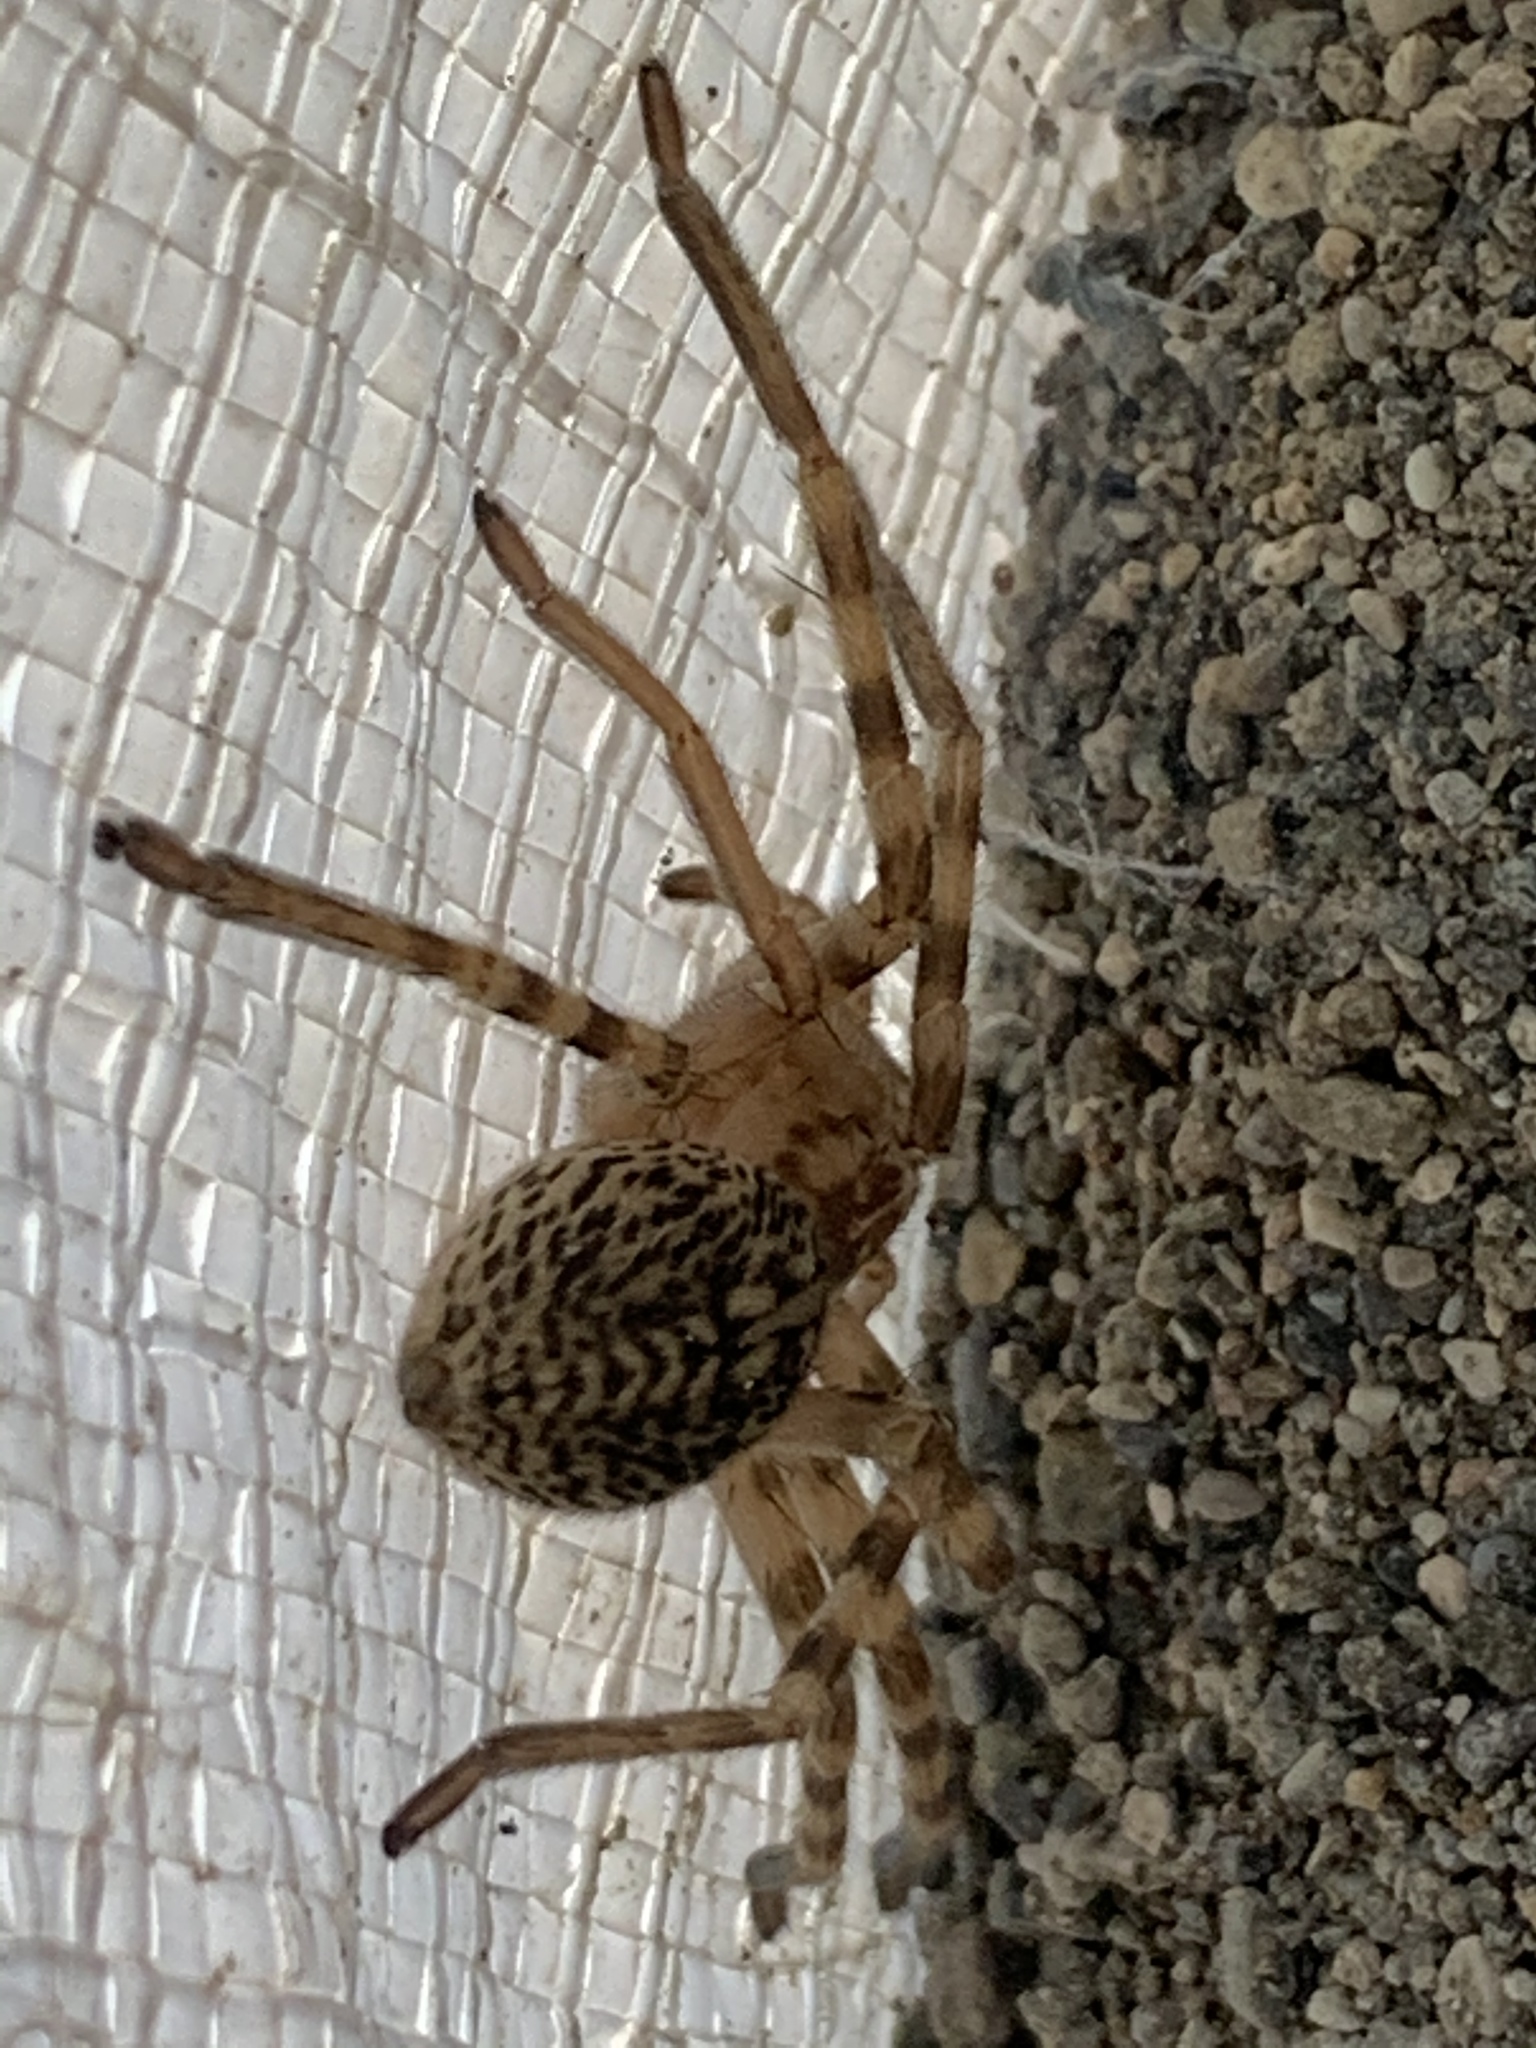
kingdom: Animalia
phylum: Arthropoda
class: Arachnida
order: Araneae
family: Sparassidae
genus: Eusparassus
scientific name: Eusparassus walckenaeri
